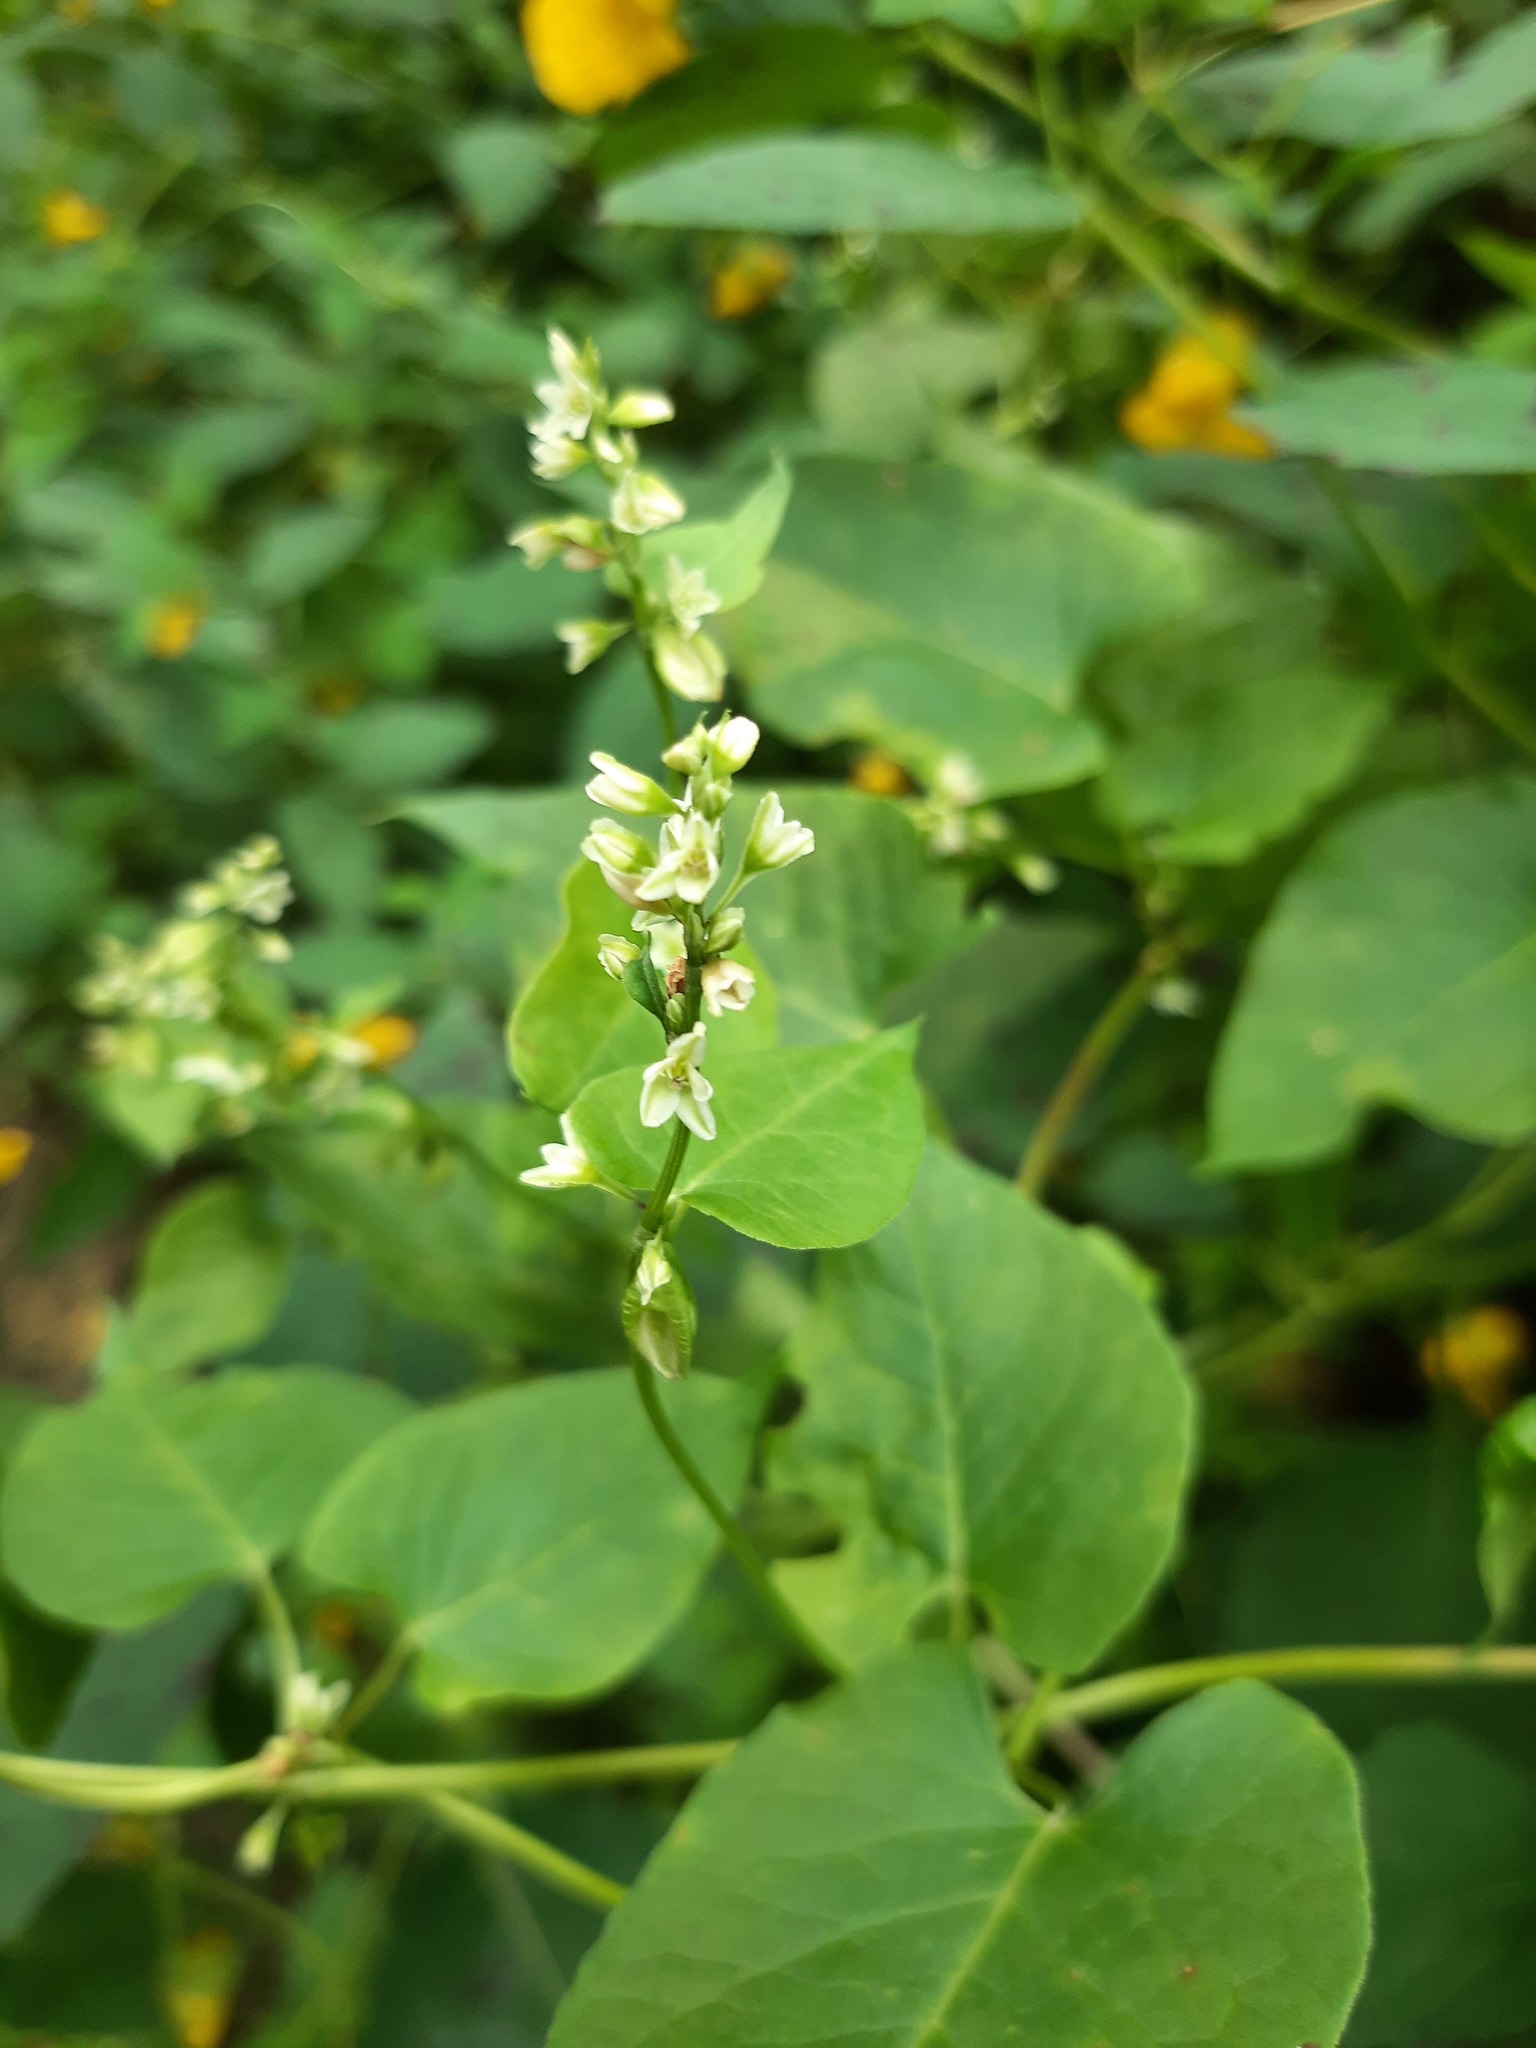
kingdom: Plantae
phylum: Tracheophyta
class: Magnoliopsida
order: Caryophyllales
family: Polygonaceae
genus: Fallopia
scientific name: Fallopia scandens
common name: Climbing false buckwheat
